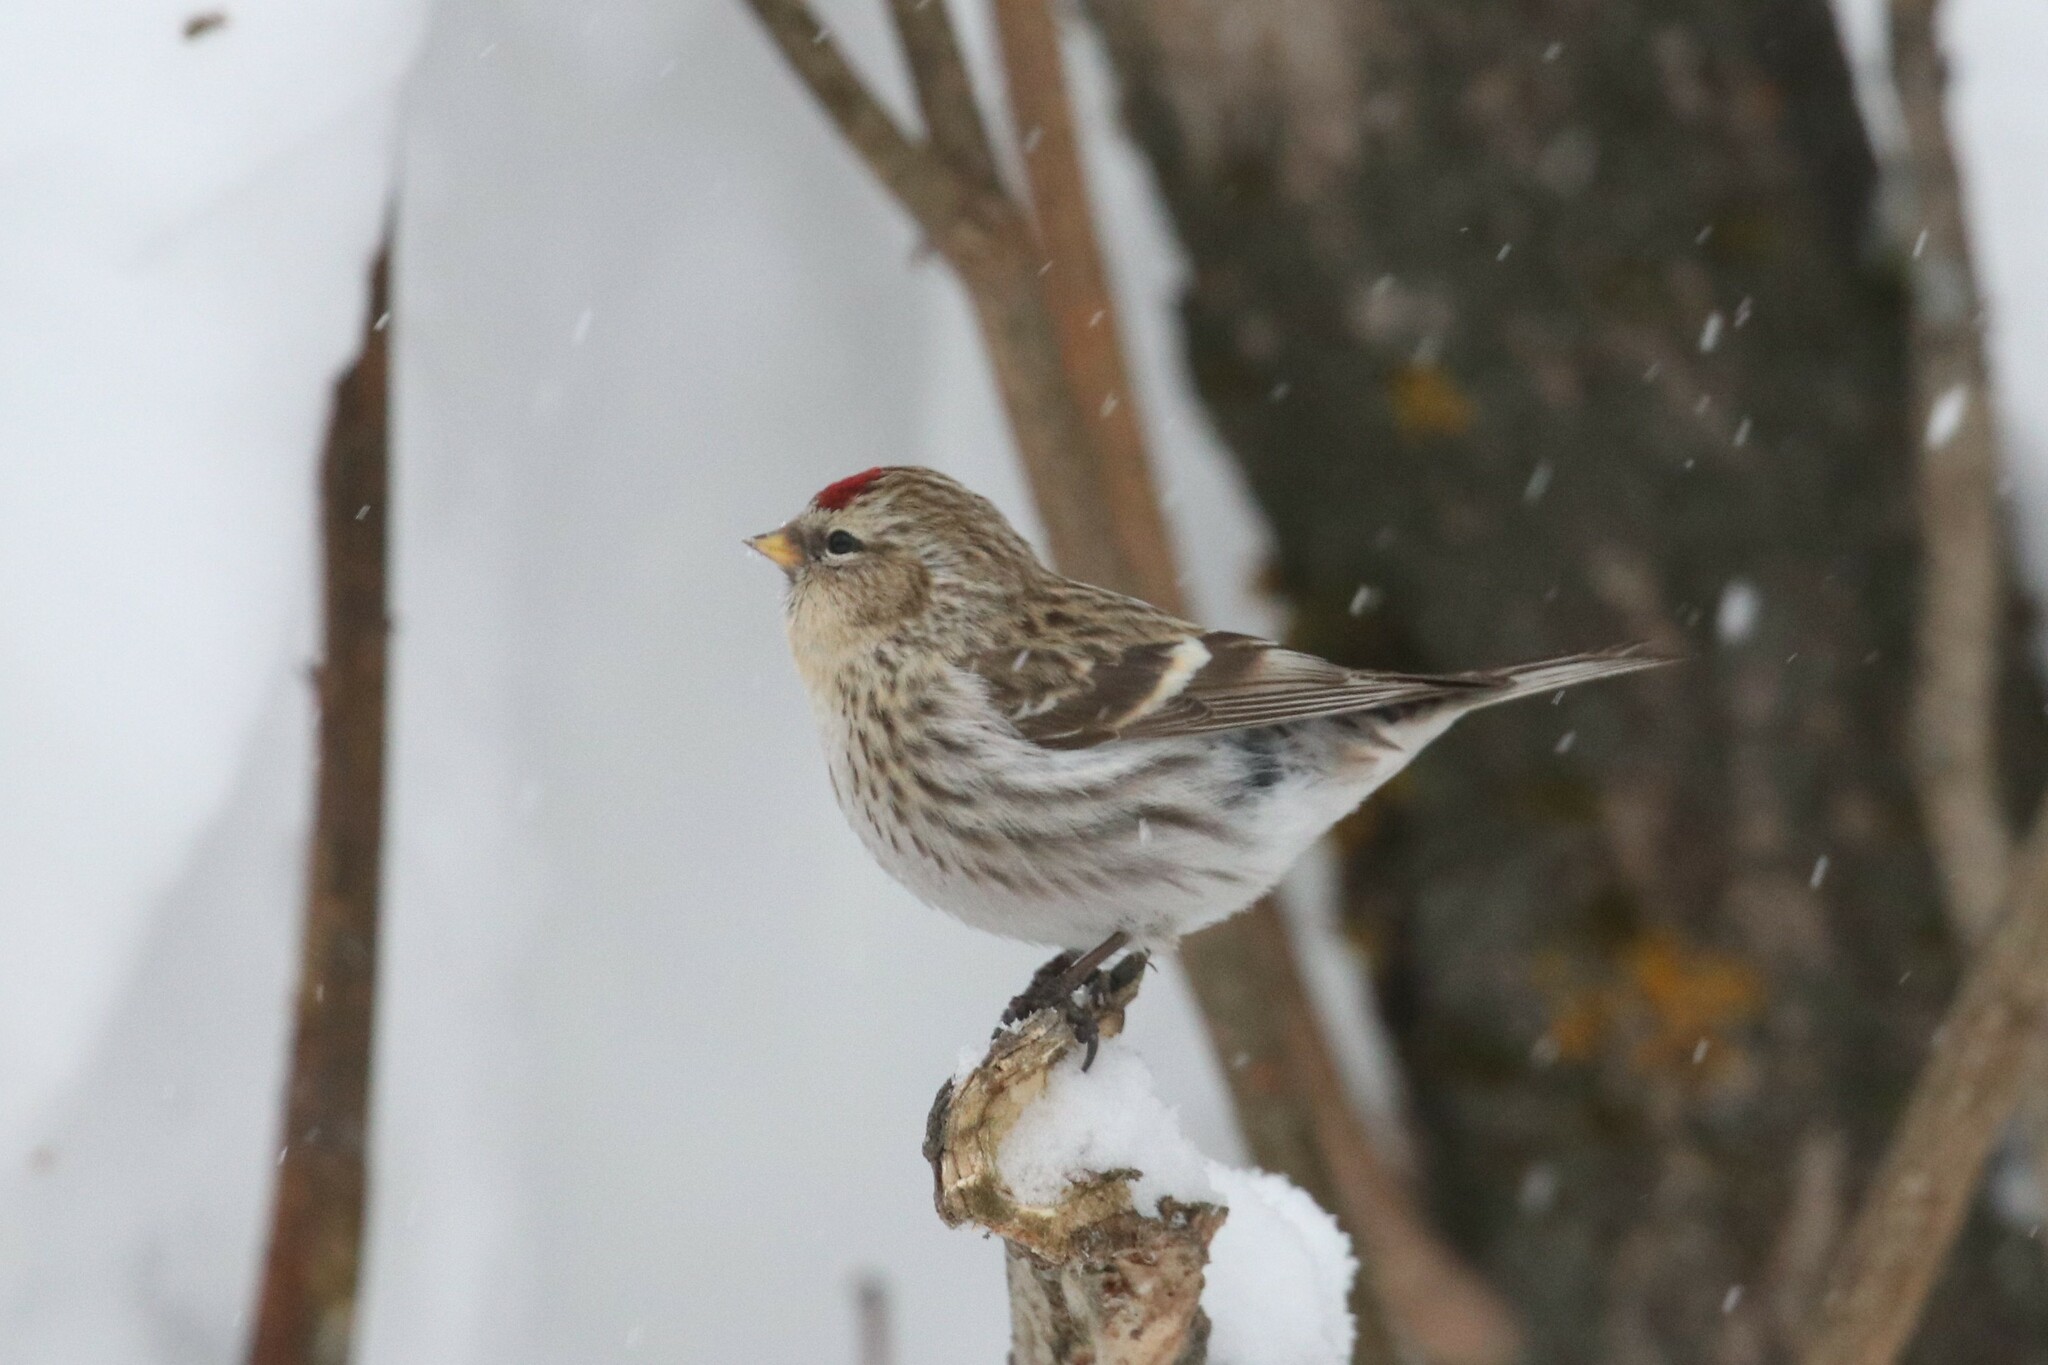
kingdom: Animalia
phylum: Chordata
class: Aves
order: Passeriformes
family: Fringillidae
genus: Acanthis
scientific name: Acanthis flammea
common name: Common redpoll
